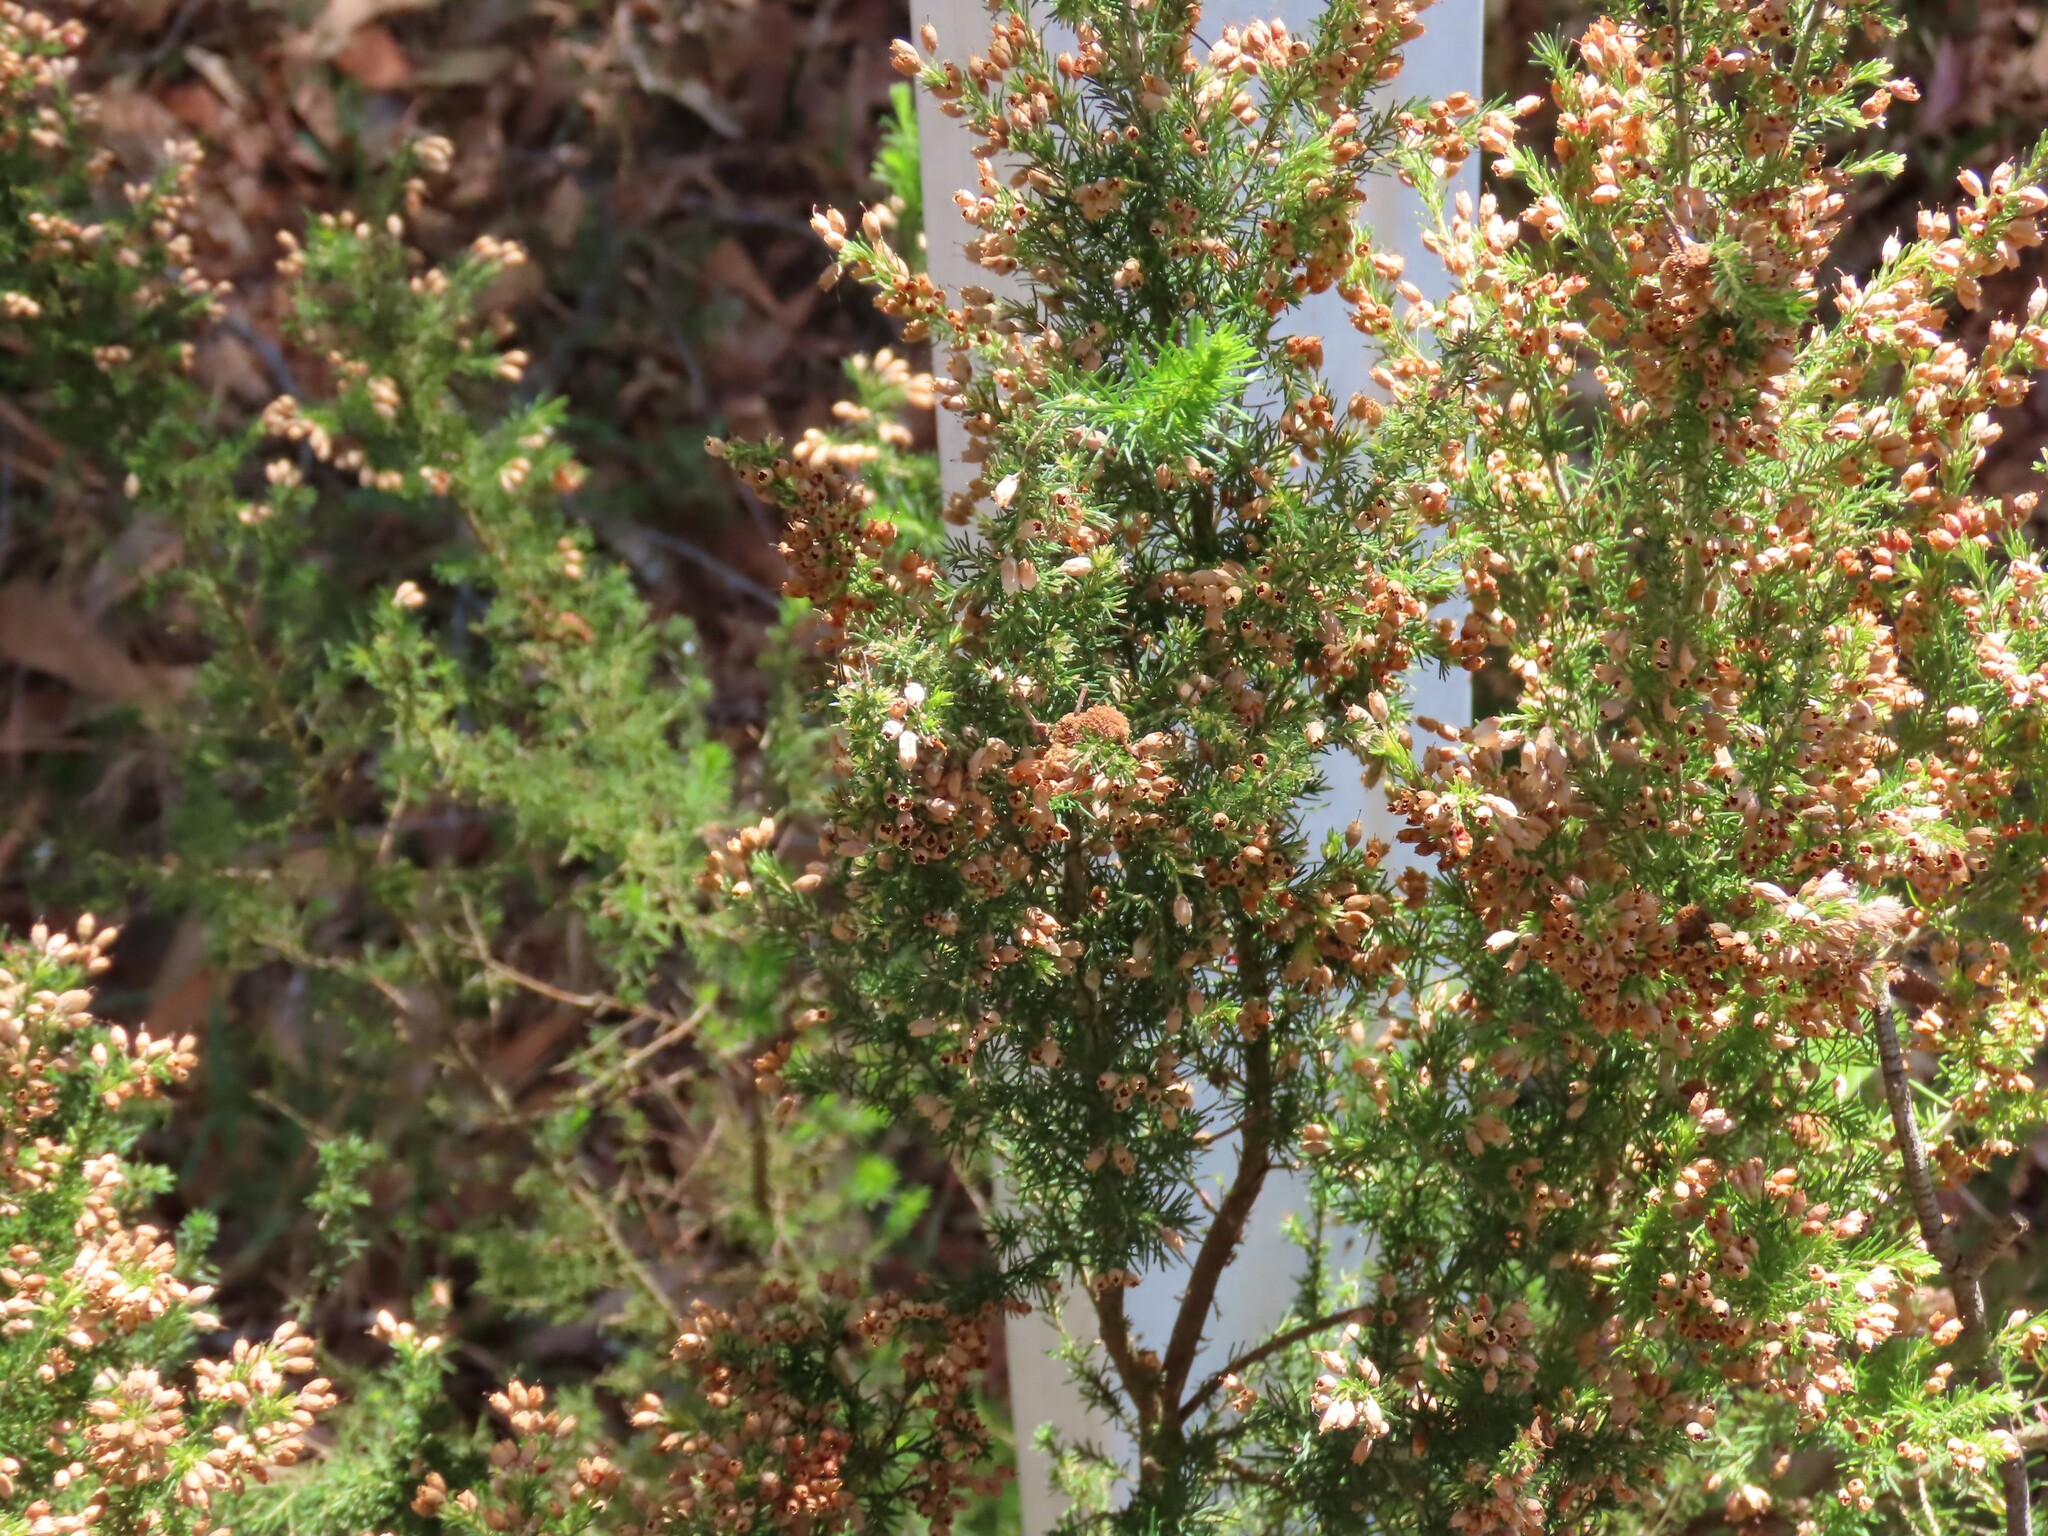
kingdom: Plantae
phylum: Tracheophyta
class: Magnoliopsida
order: Ericales
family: Ericaceae
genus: Erica
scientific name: Erica lusitanica
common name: Spanish heath
